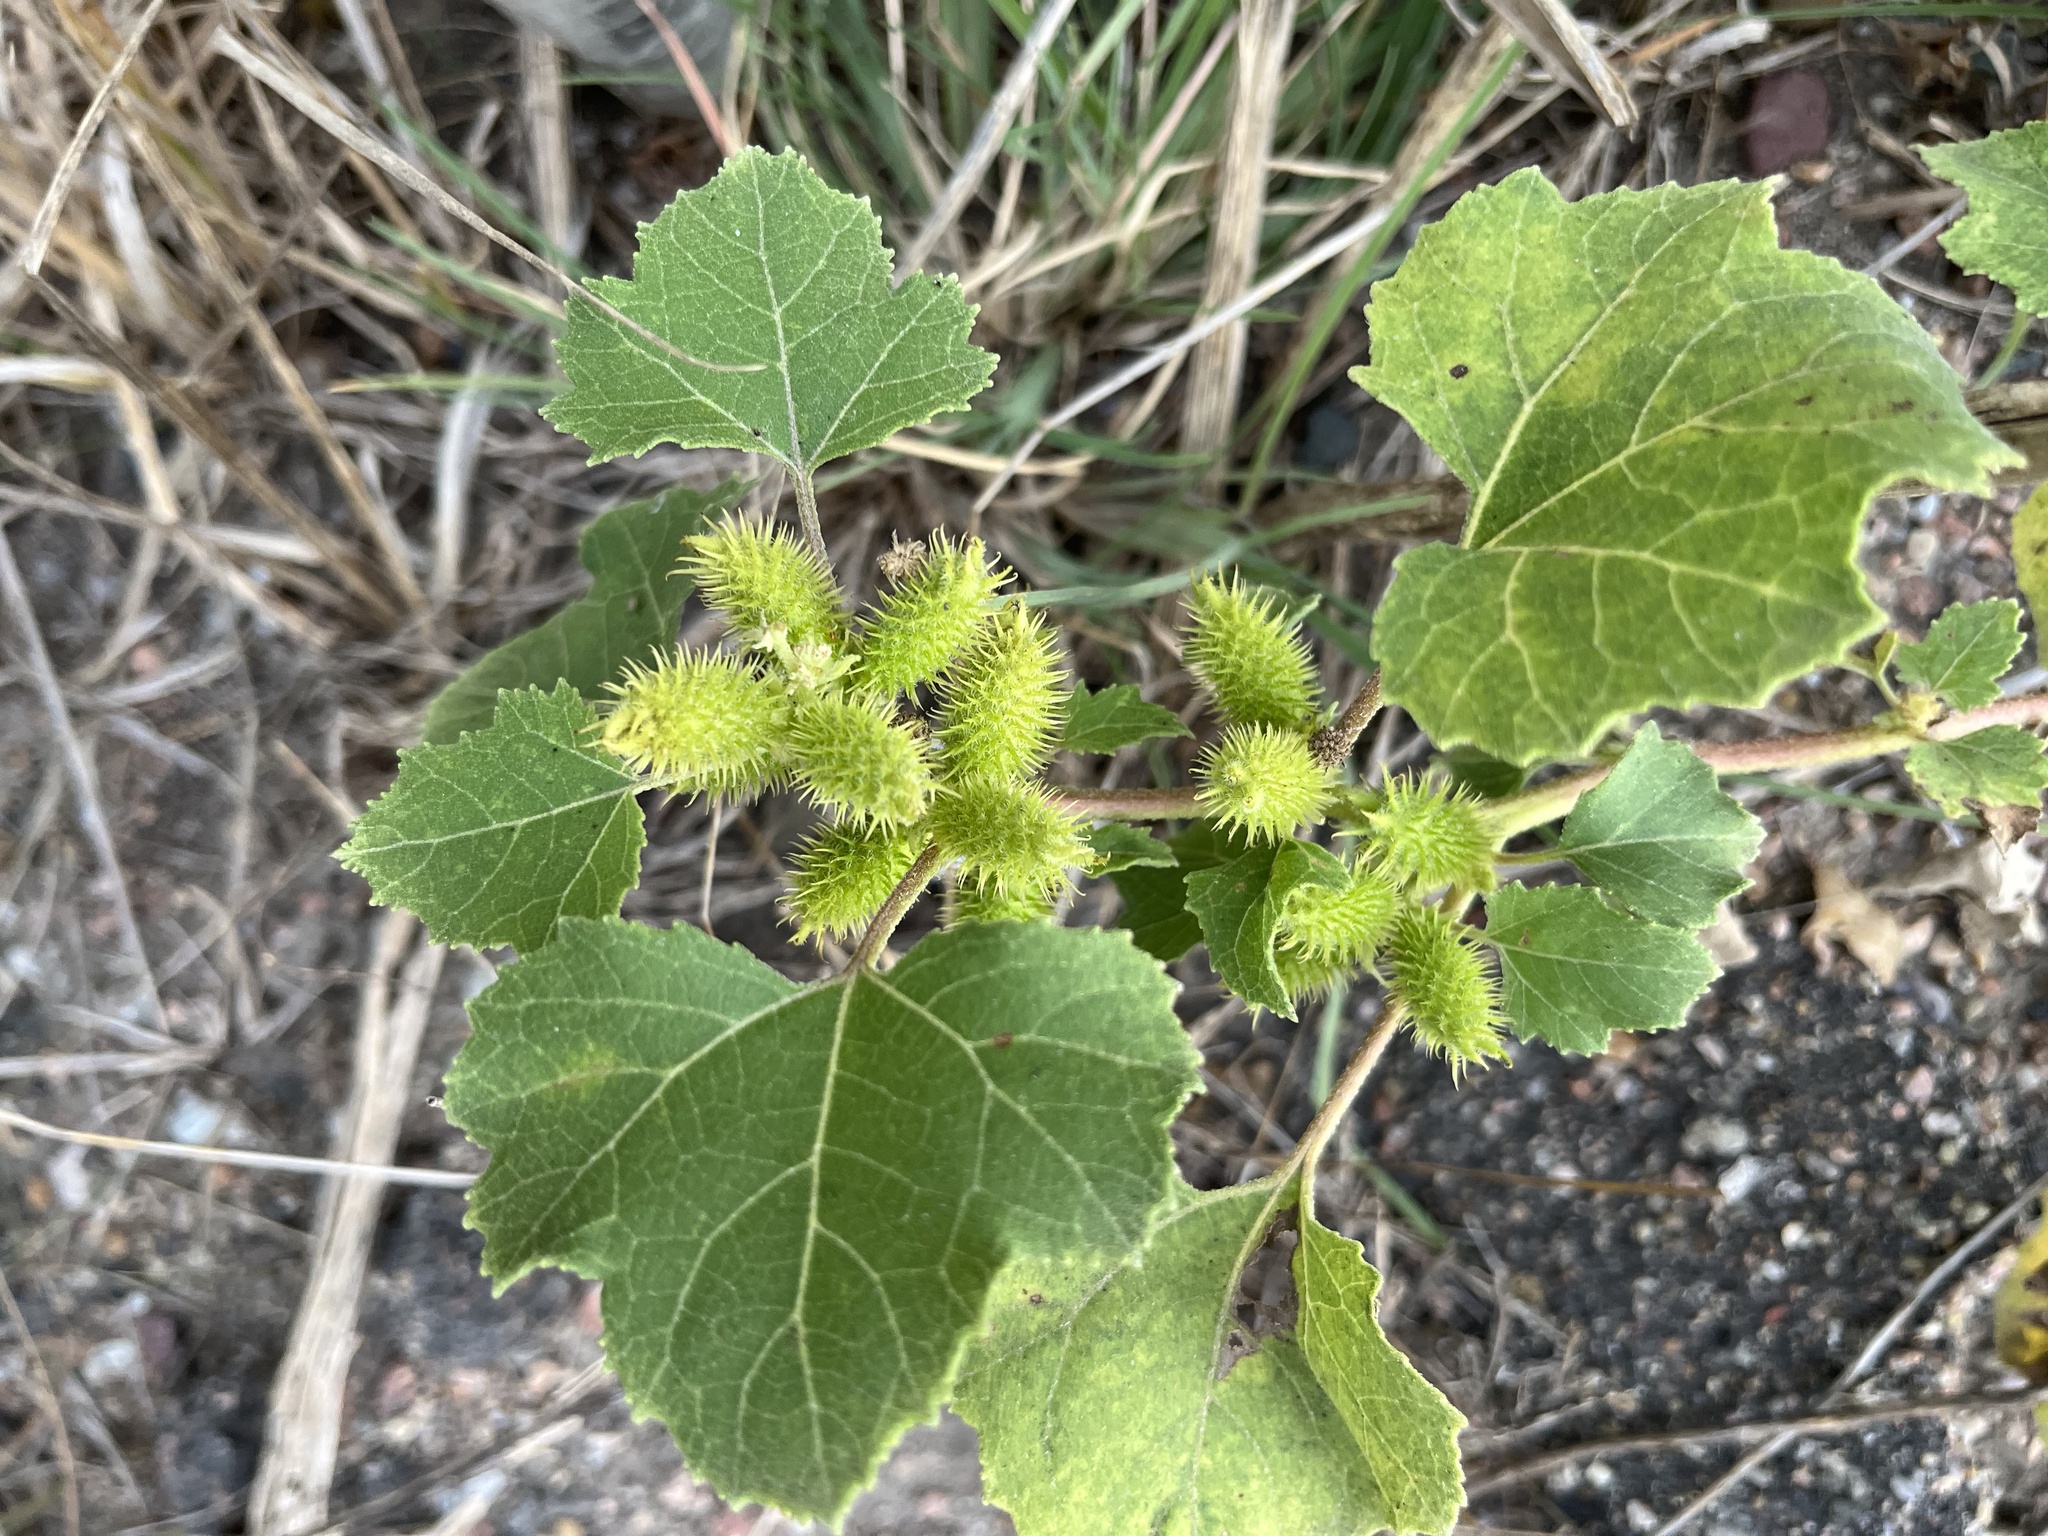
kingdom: Plantae
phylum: Tracheophyta
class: Magnoliopsida
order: Asterales
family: Asteraceae
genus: Xanthium
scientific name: Xanthium strumarium
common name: Rough cocklebur
